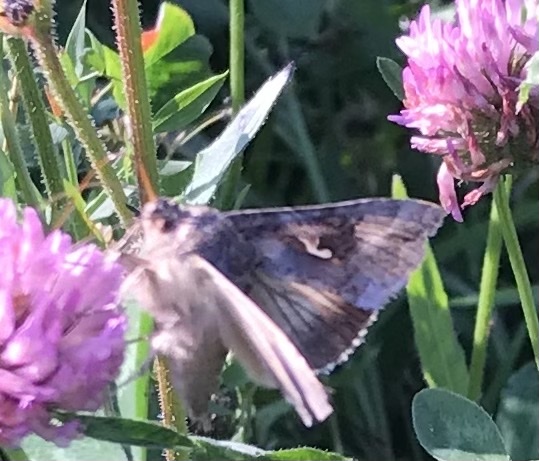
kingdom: Animalia
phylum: Arthropoda
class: Insecta
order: Lepidoptera
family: Noctuidae
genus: Autographa
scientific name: Autographa gamma
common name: Silver y
